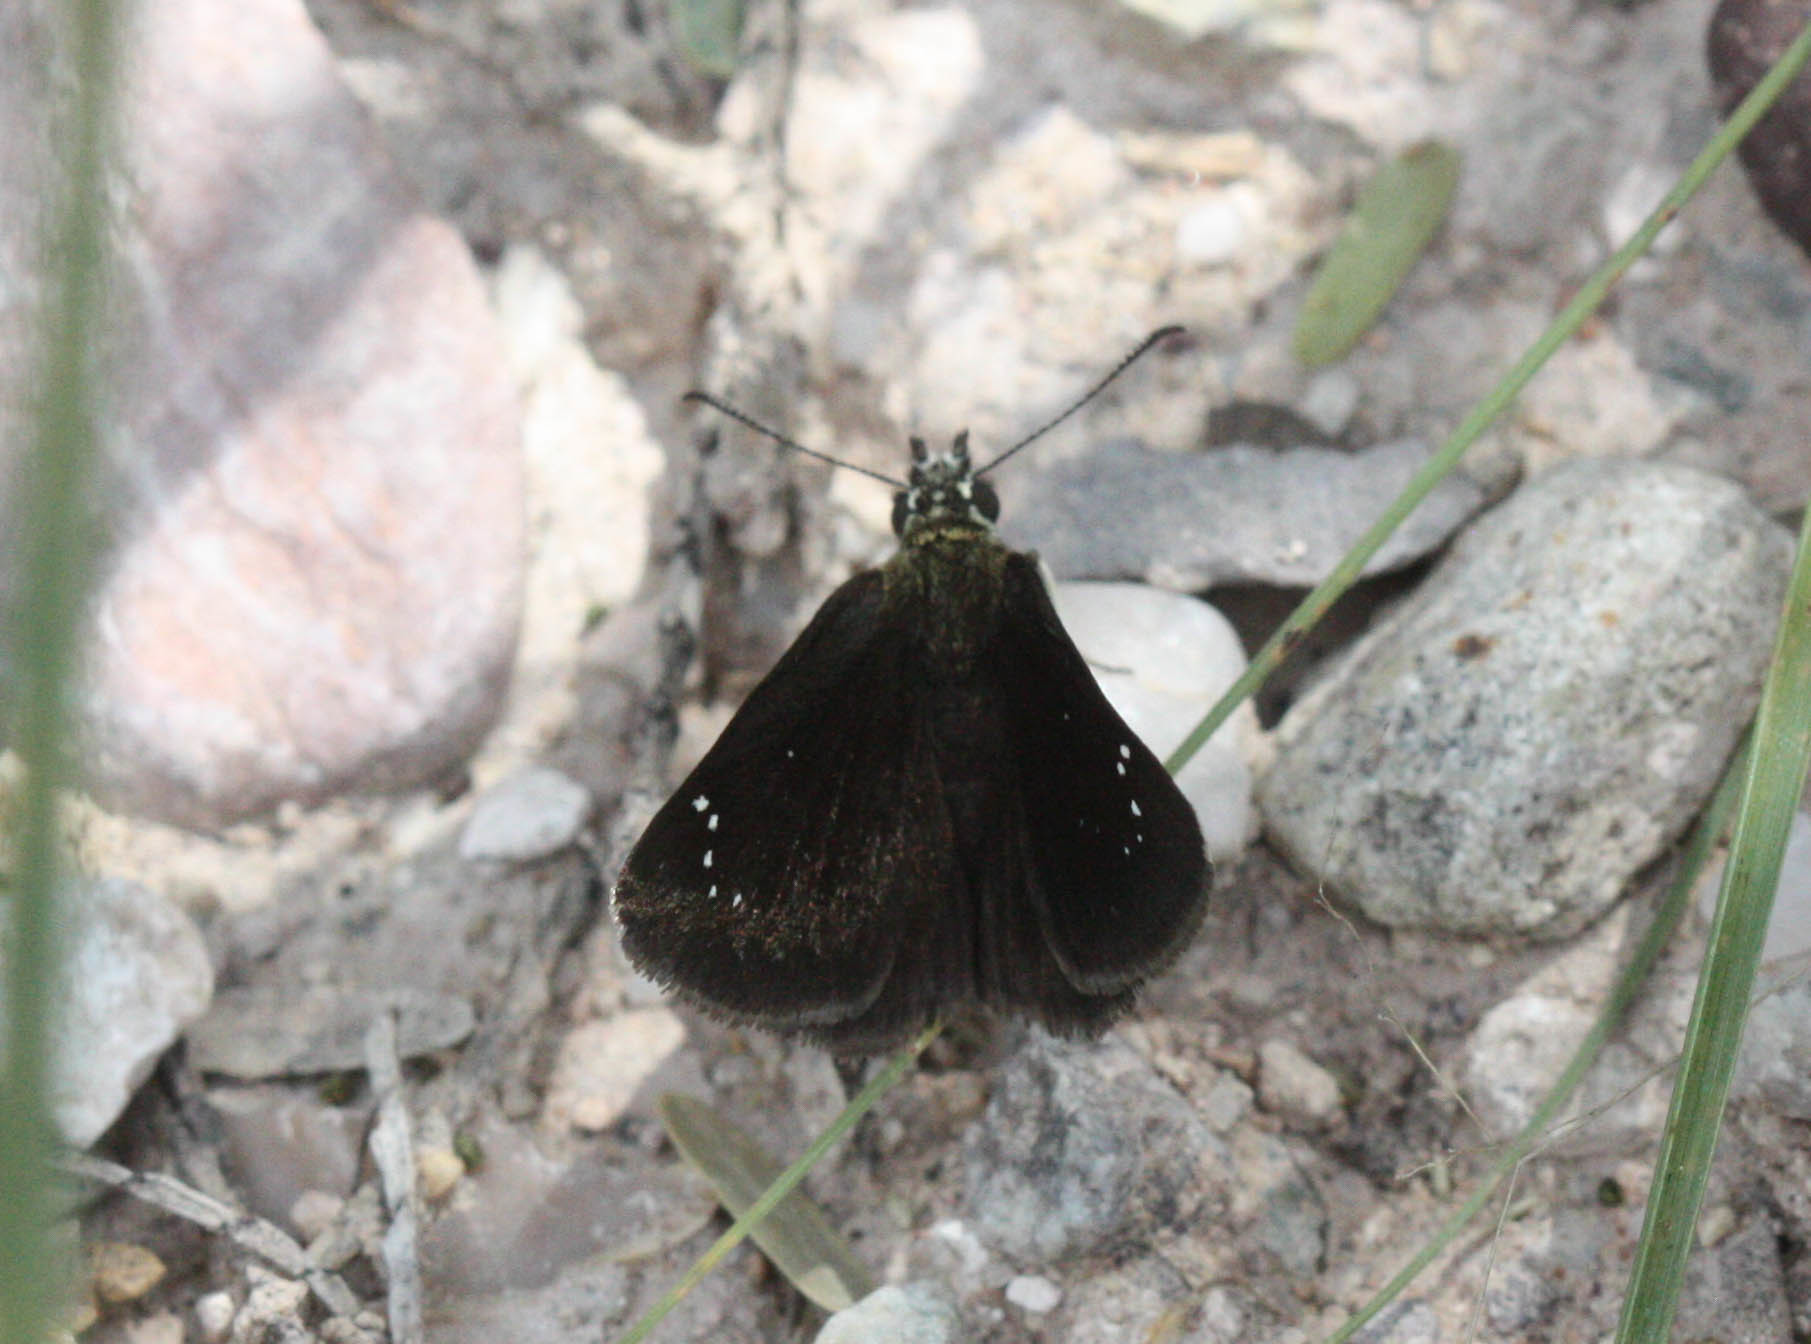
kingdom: Animalia
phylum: Arthropoda
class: Insecta
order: Lepidoptera
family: Hesperiidae
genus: Pholisora
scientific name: Pholisora catullus
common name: Common sootywing
